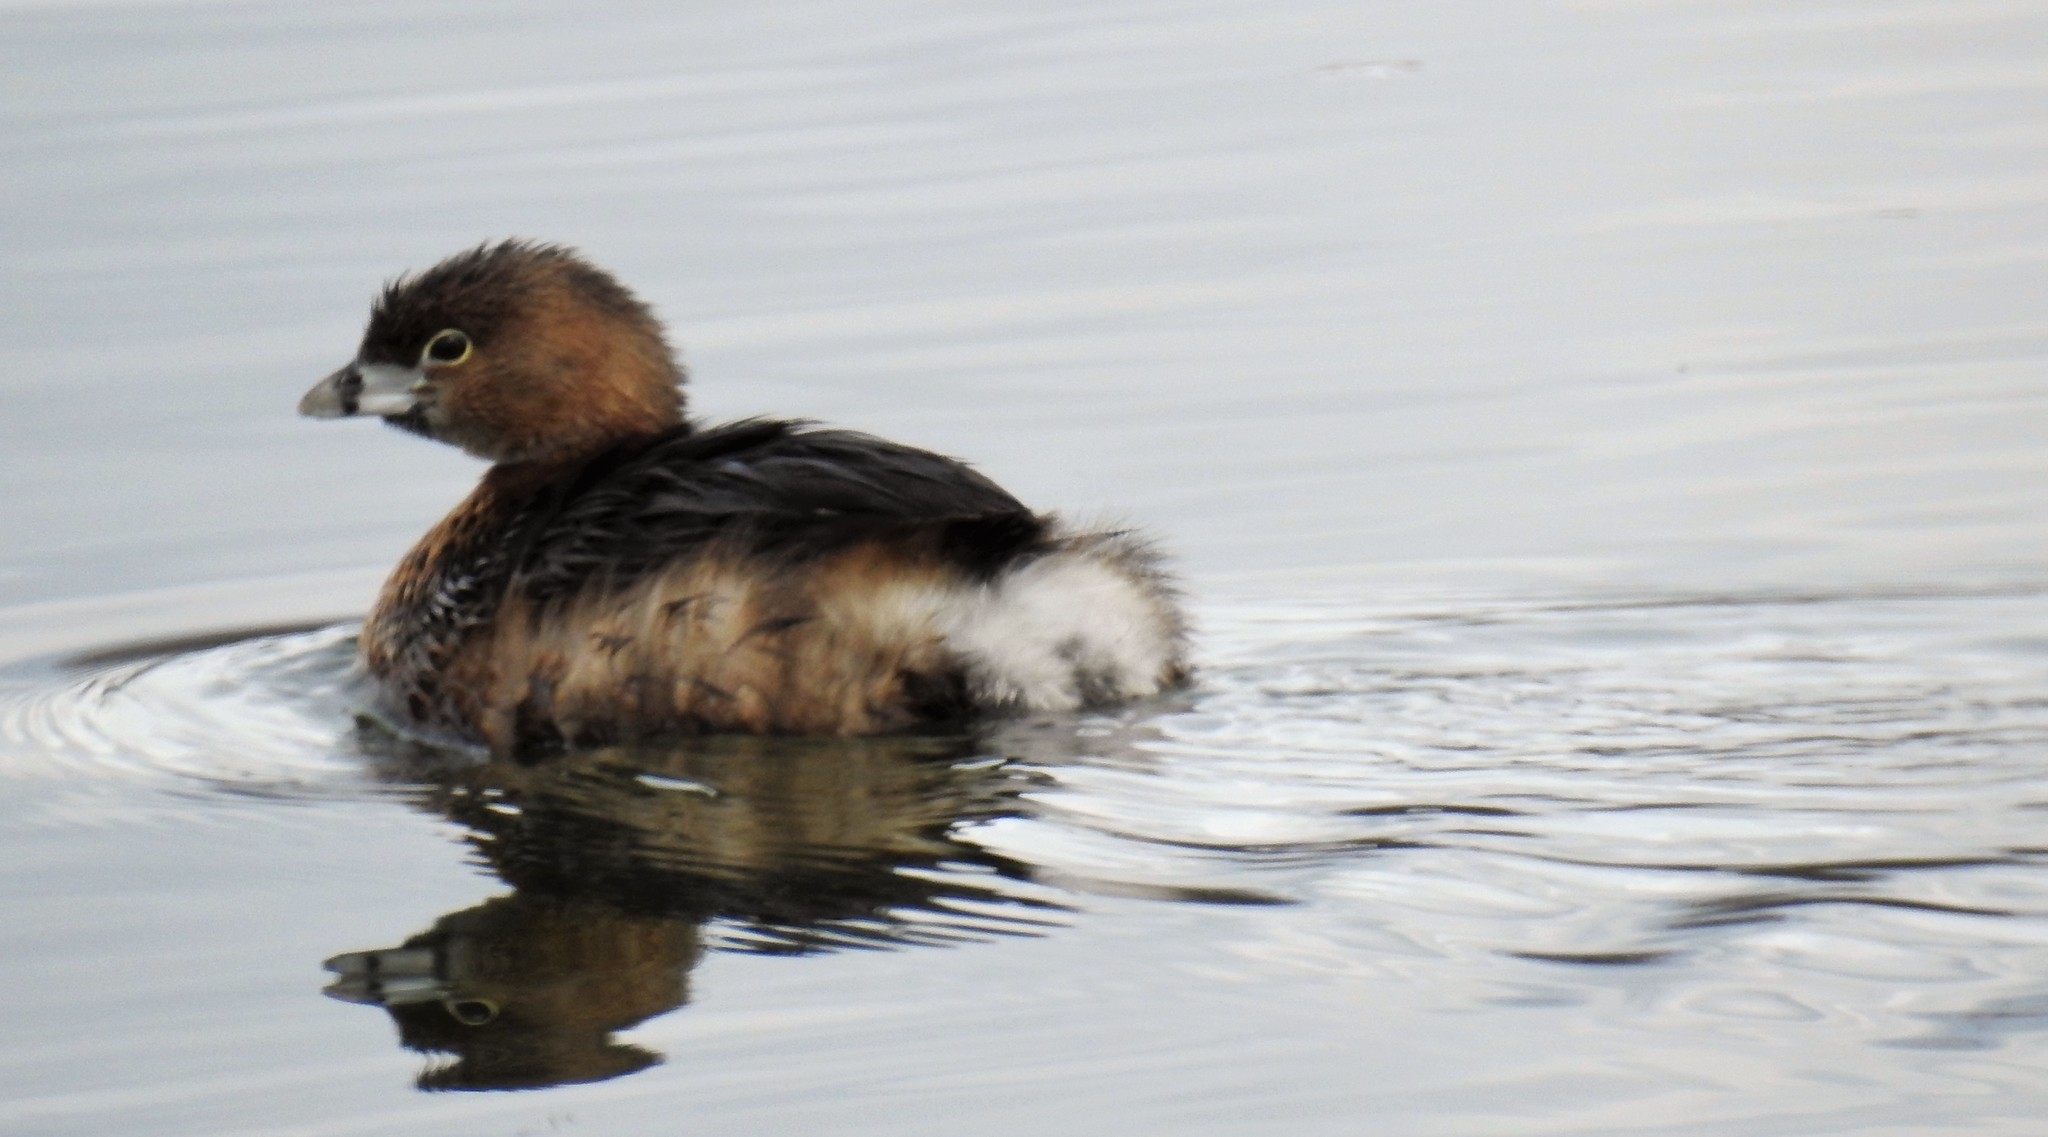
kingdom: Animalia
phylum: Chordata
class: Aves
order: Podicipediformes
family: Podicipedidae
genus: Podilymbus
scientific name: Podilymbus podiceps
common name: Pied-billed grebe
